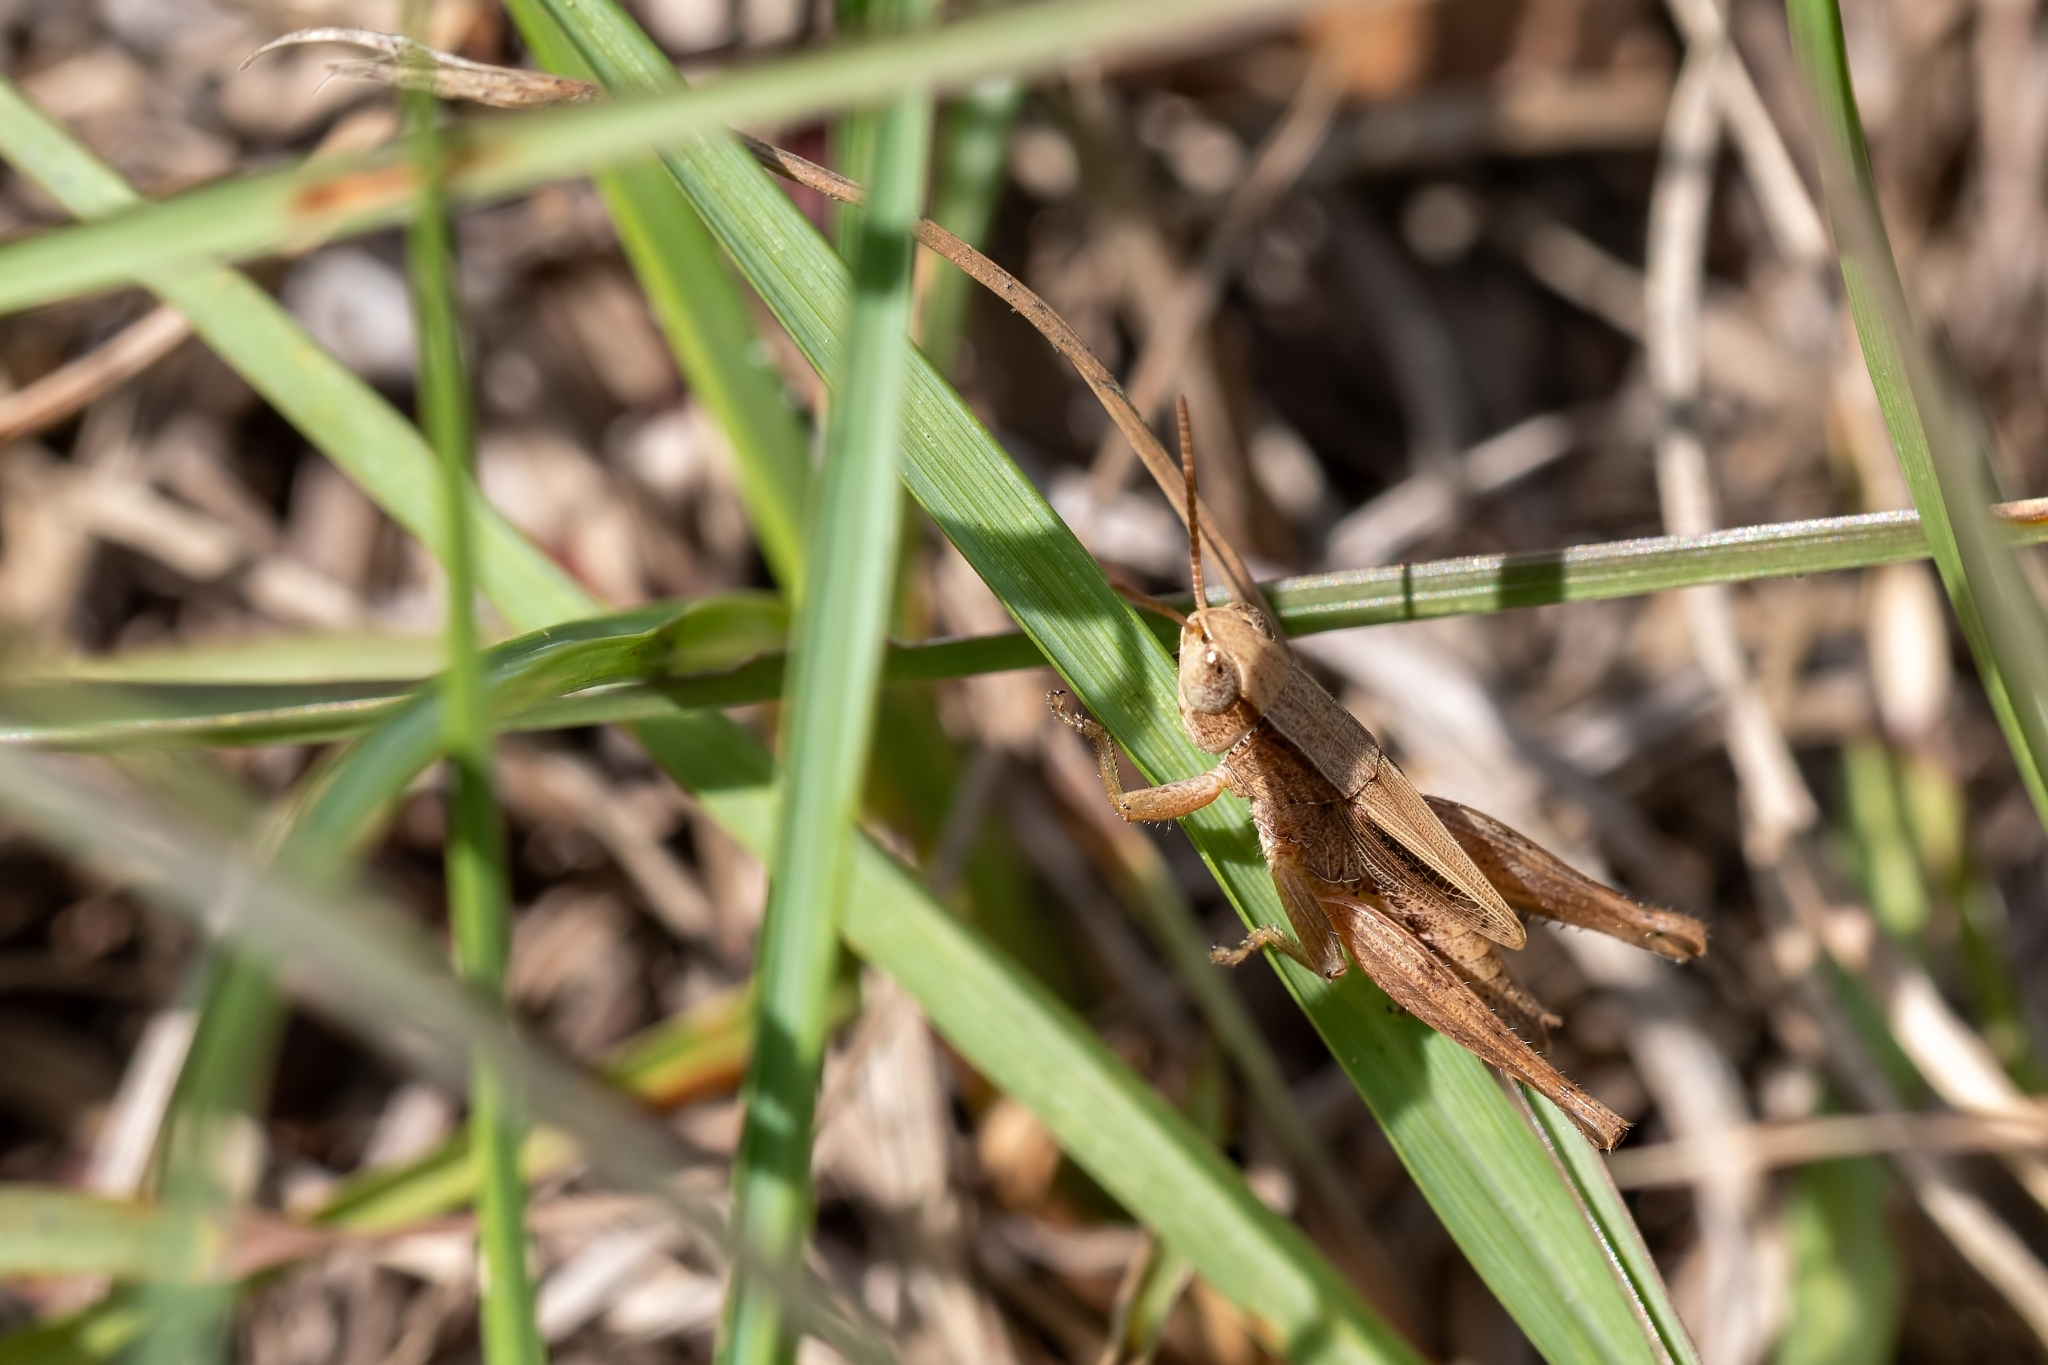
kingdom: Animalia
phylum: Arthropoda
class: Insecta
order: Orthoptera
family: Acrididae
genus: Dichromorpha
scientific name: Dichromorpha viridis
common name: Short-winged green grasshopper
